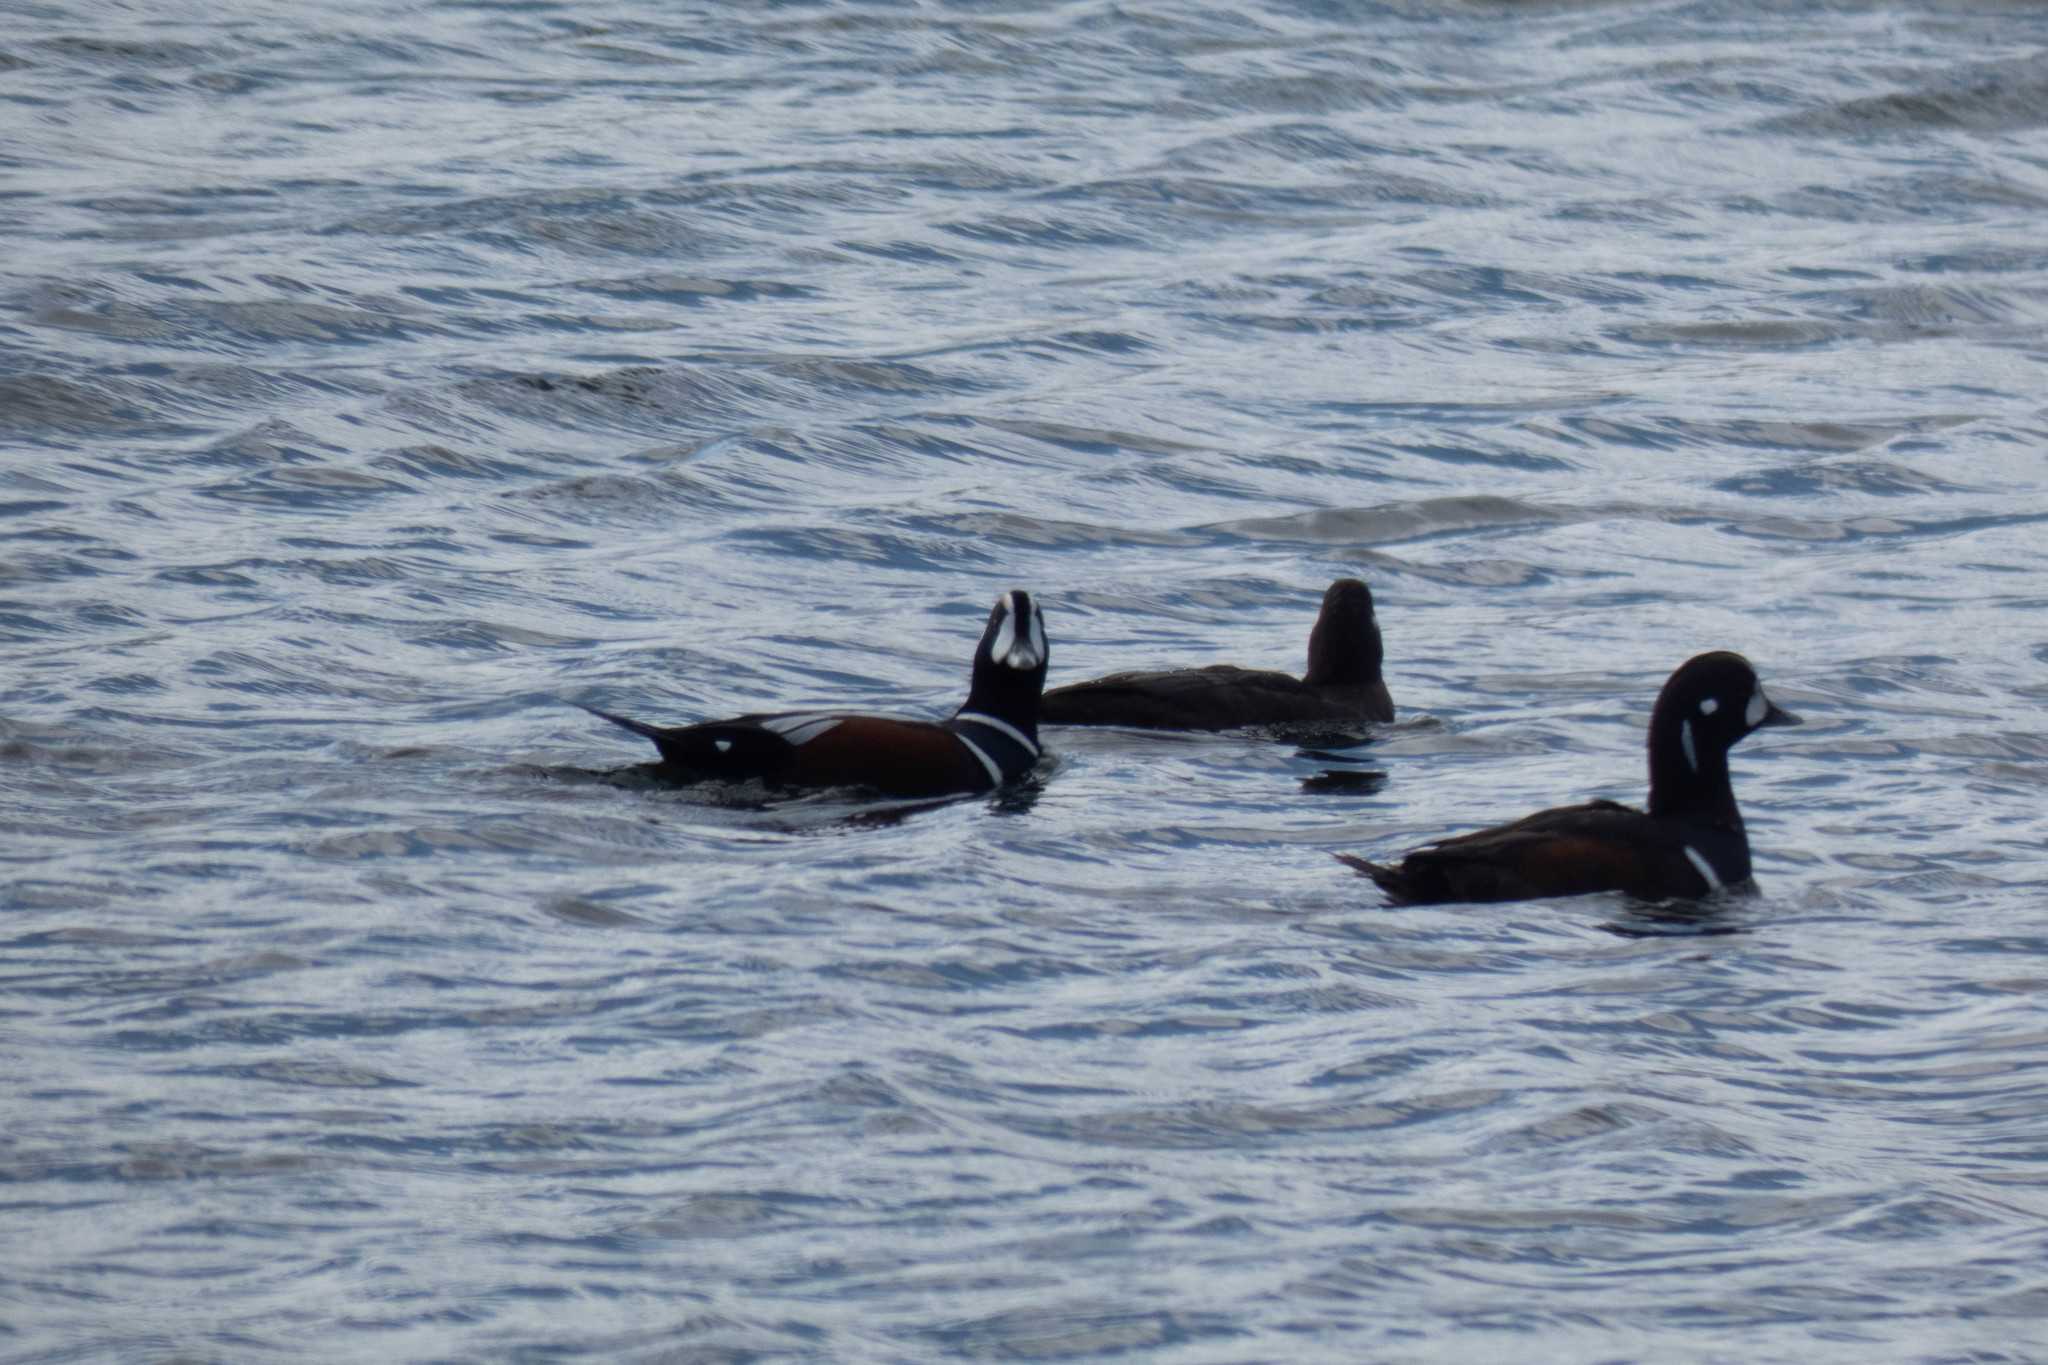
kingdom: Animalia
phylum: Chordata
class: Aves
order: Anseriformes
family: Anatidae
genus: Histrionicus
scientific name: Histrionicus histrionicus
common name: Harlequin duck
